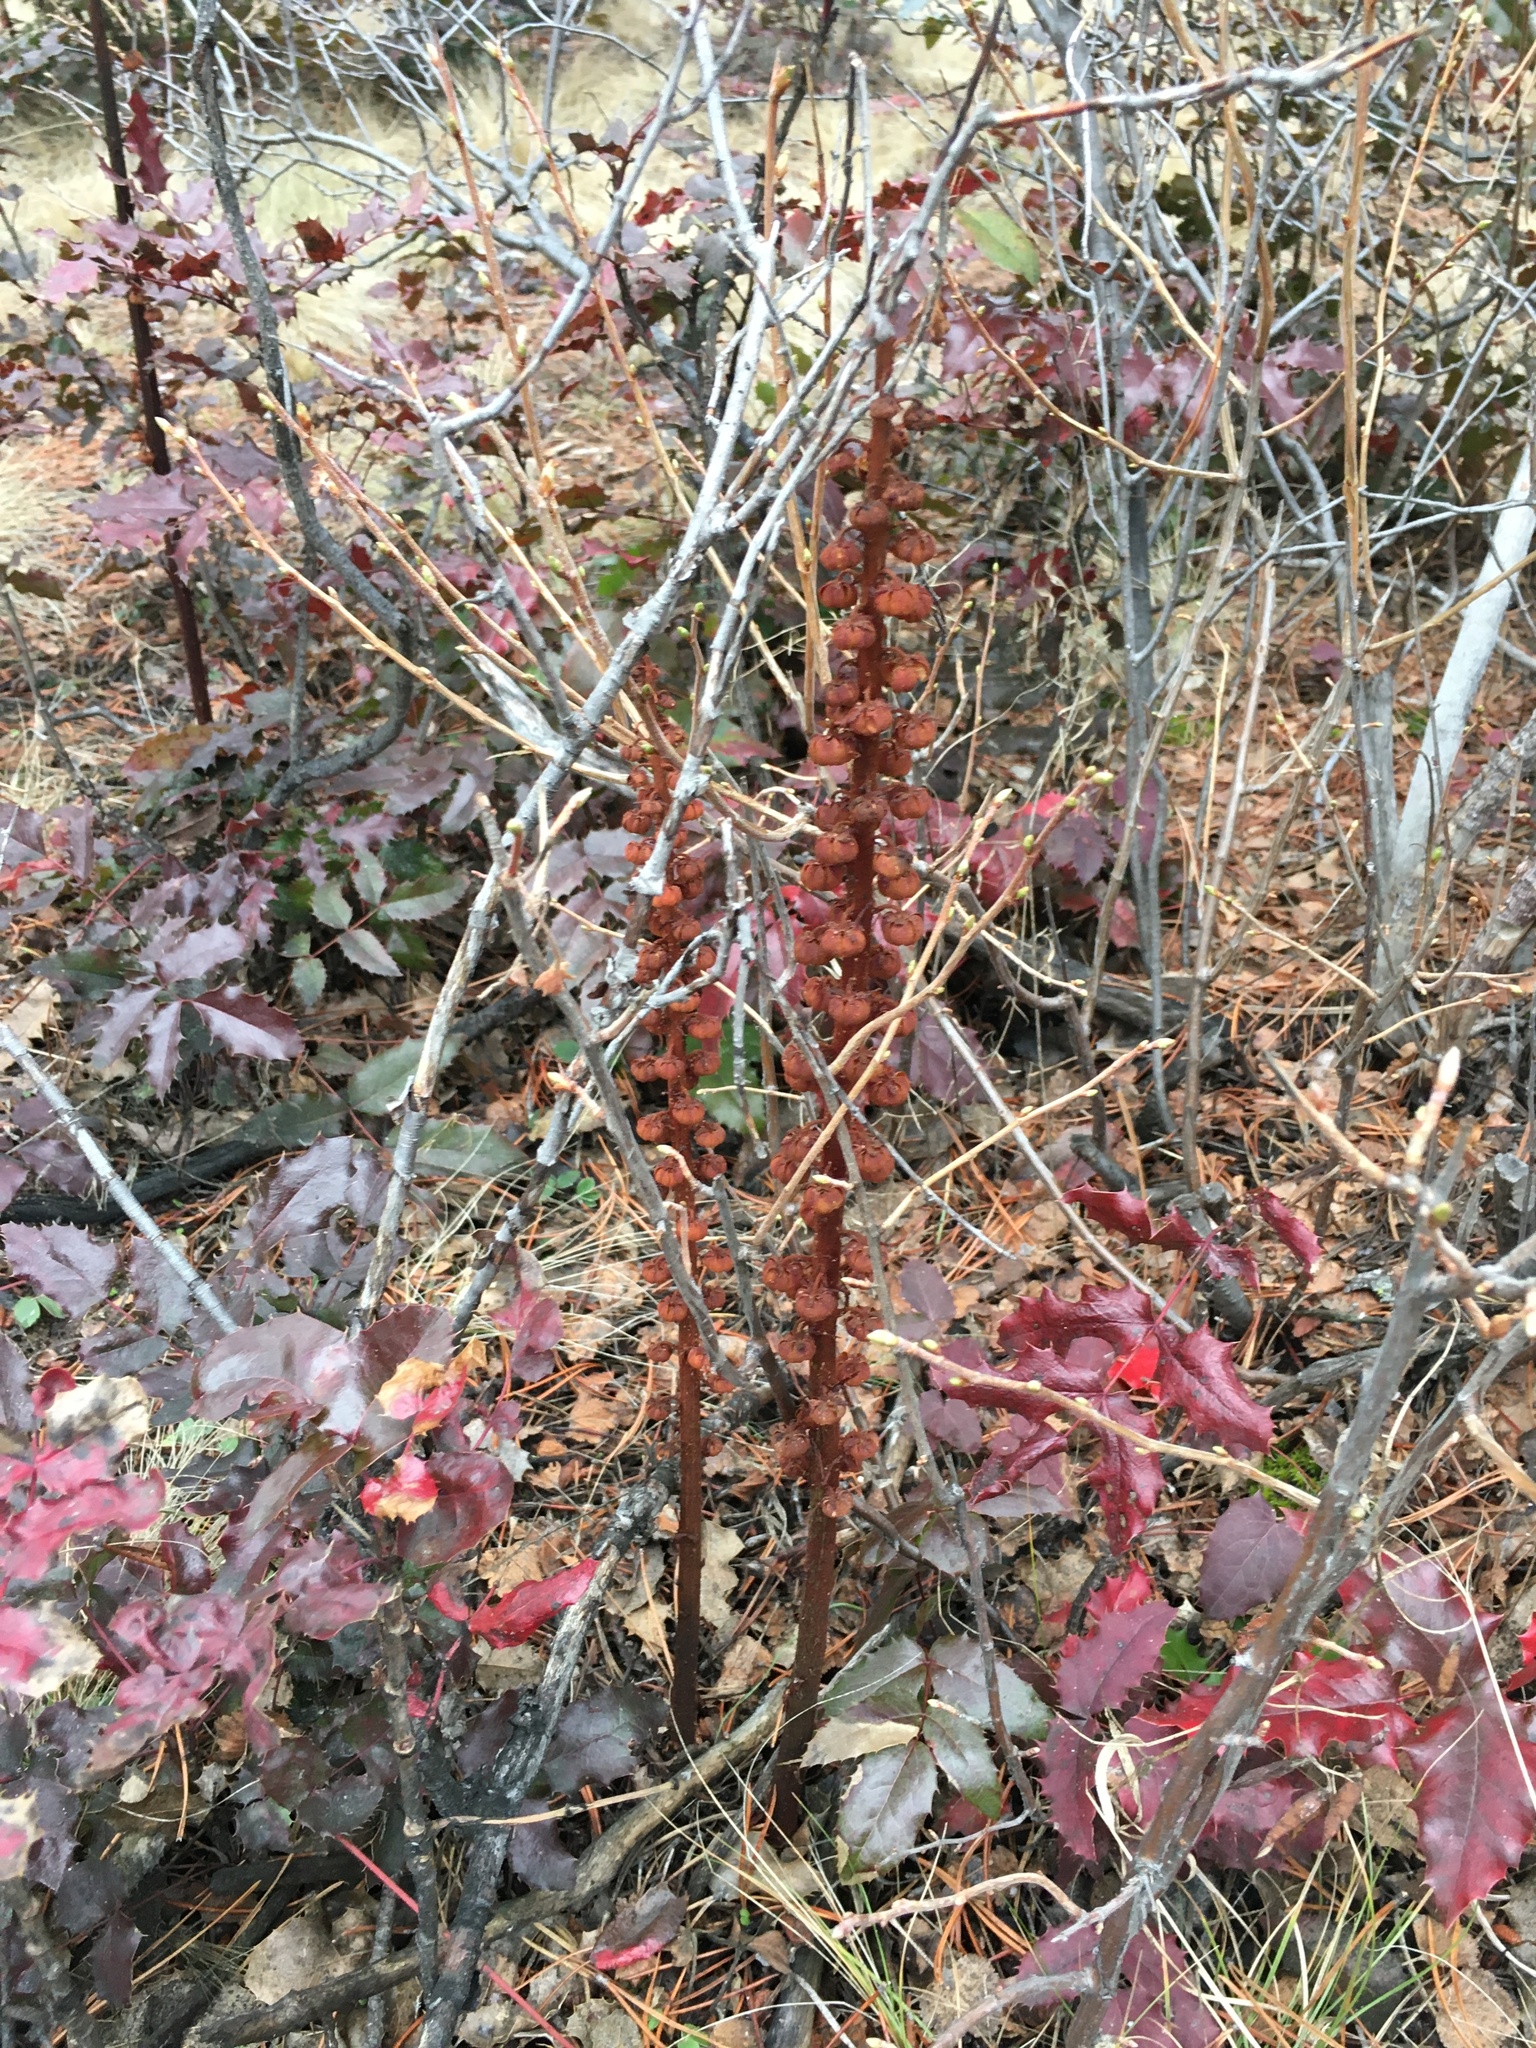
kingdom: Plantae
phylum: Tracheophyta
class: Magnoliopsida
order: Ericales
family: Ericaceae
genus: Pterospora
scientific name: Pterospora andromedea
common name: Giant bird's-nest
